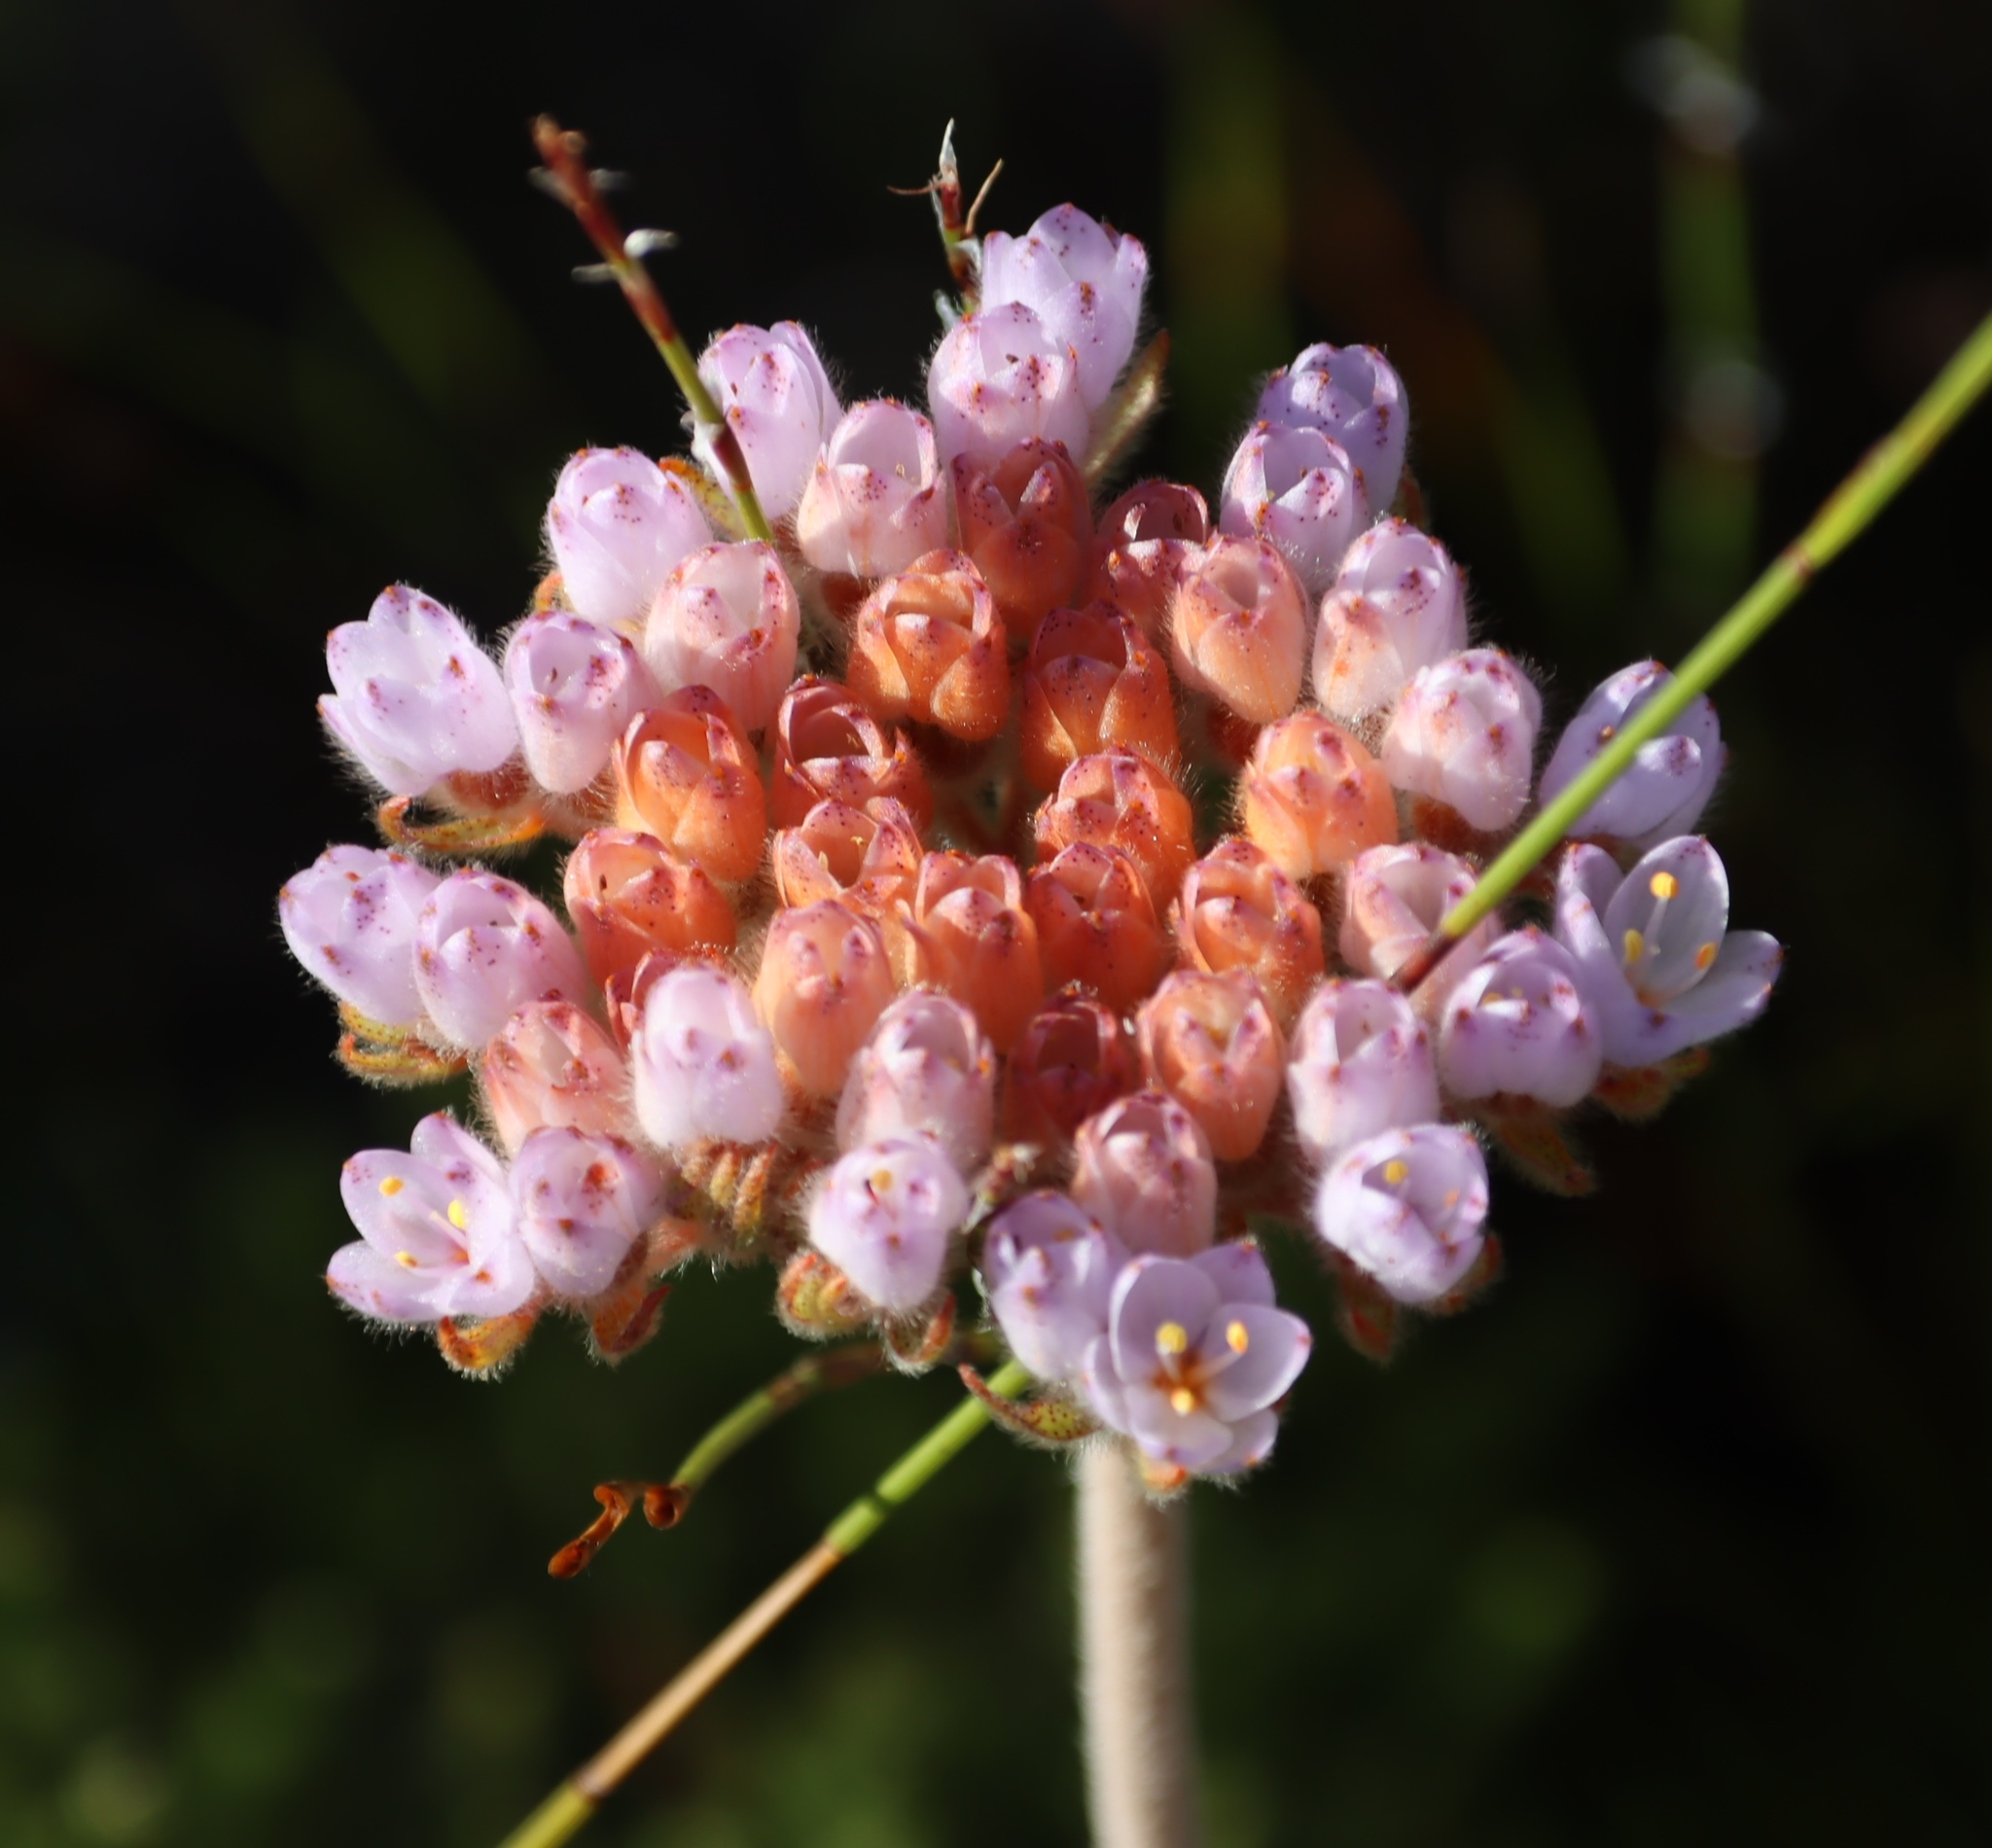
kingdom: Plantae
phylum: Tracheophyta
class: Liliopsida
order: Commelinales
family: Haemodoraceae
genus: Dilatris
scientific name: Dilatris pillansii
